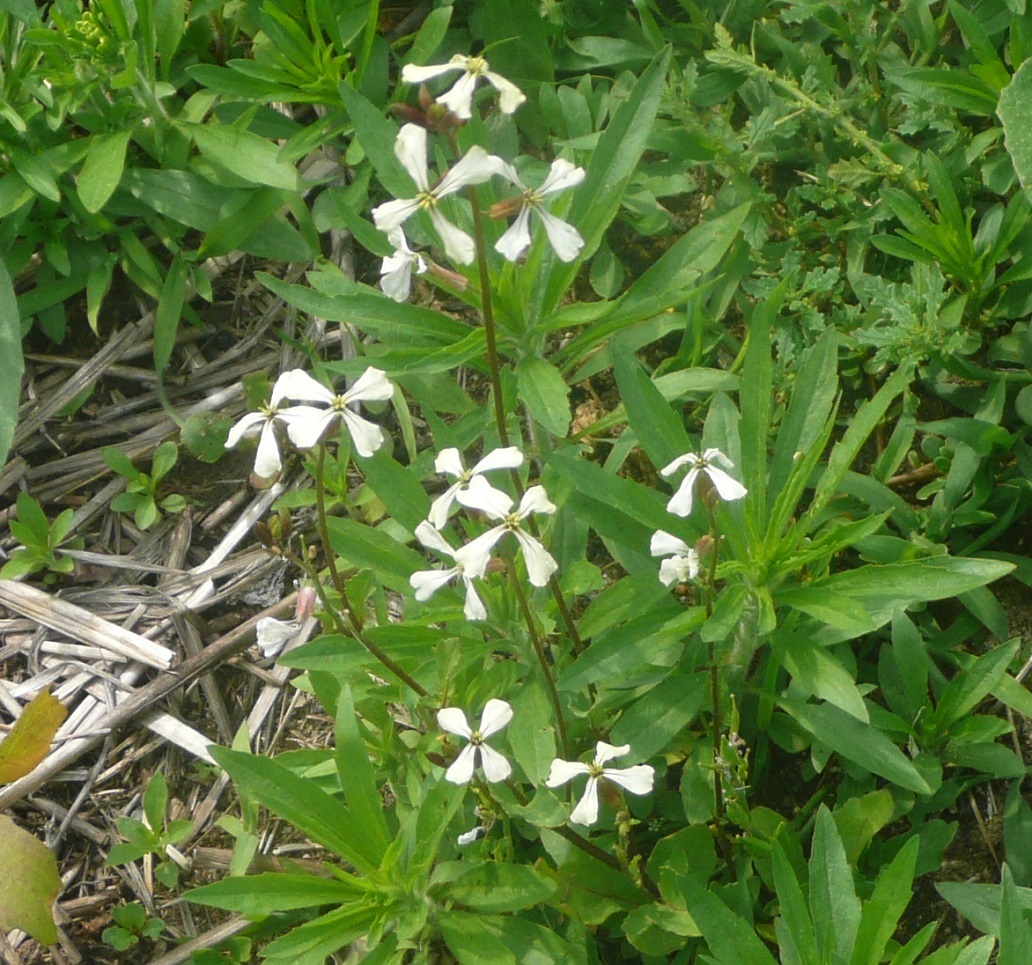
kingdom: Plantae
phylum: Tracheophyta
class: Magnoliopsida
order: Brassicales
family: Brassicaceae
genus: Eruca
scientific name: Eruca vesicaria
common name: Garden rocket
